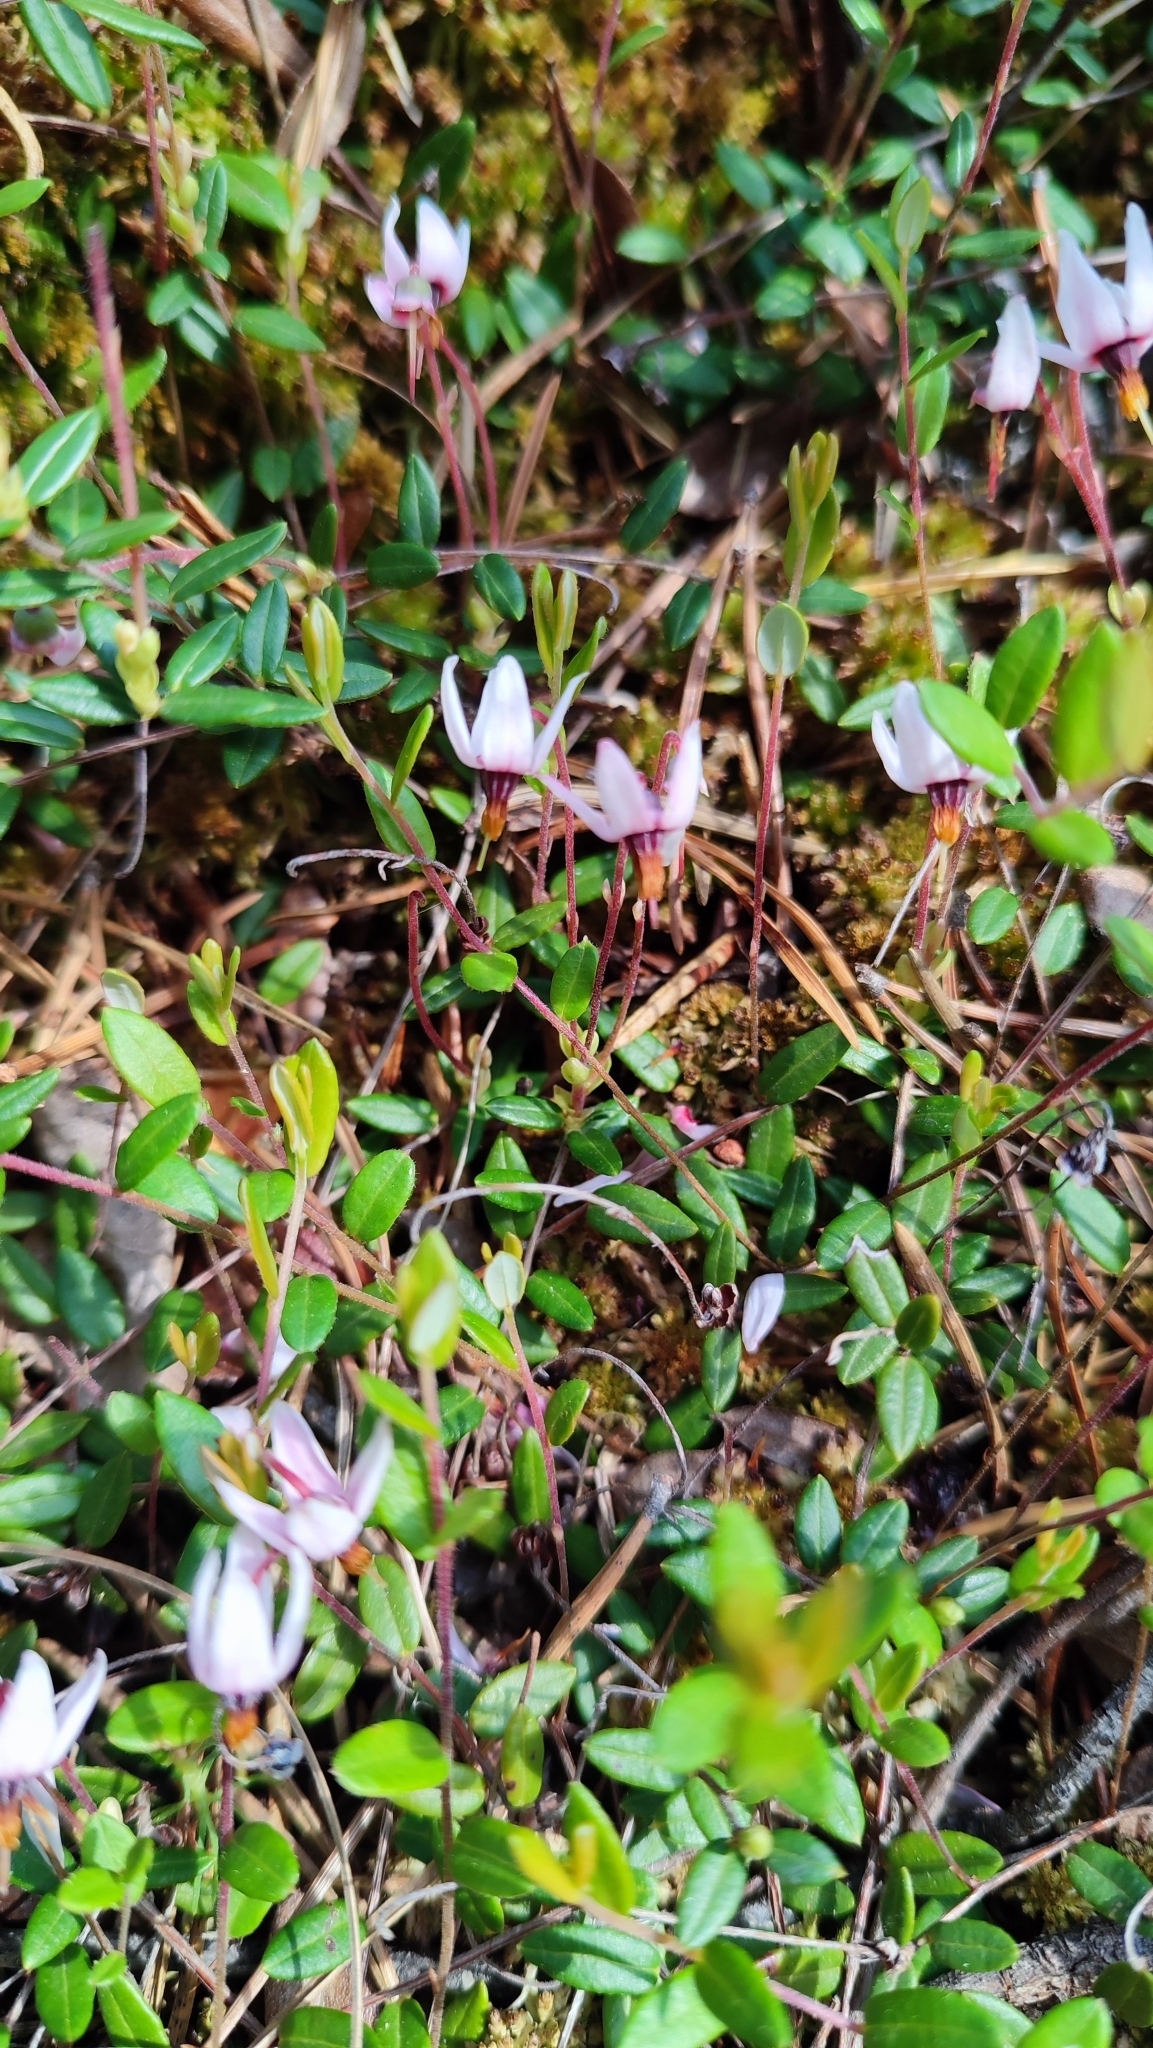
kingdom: Plantae
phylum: Tracheophyta
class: Magnoliopsida
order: Ericales
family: Ericaceae
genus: Vaccinium
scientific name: Vaccinium oxycoccos
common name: Cranberry
